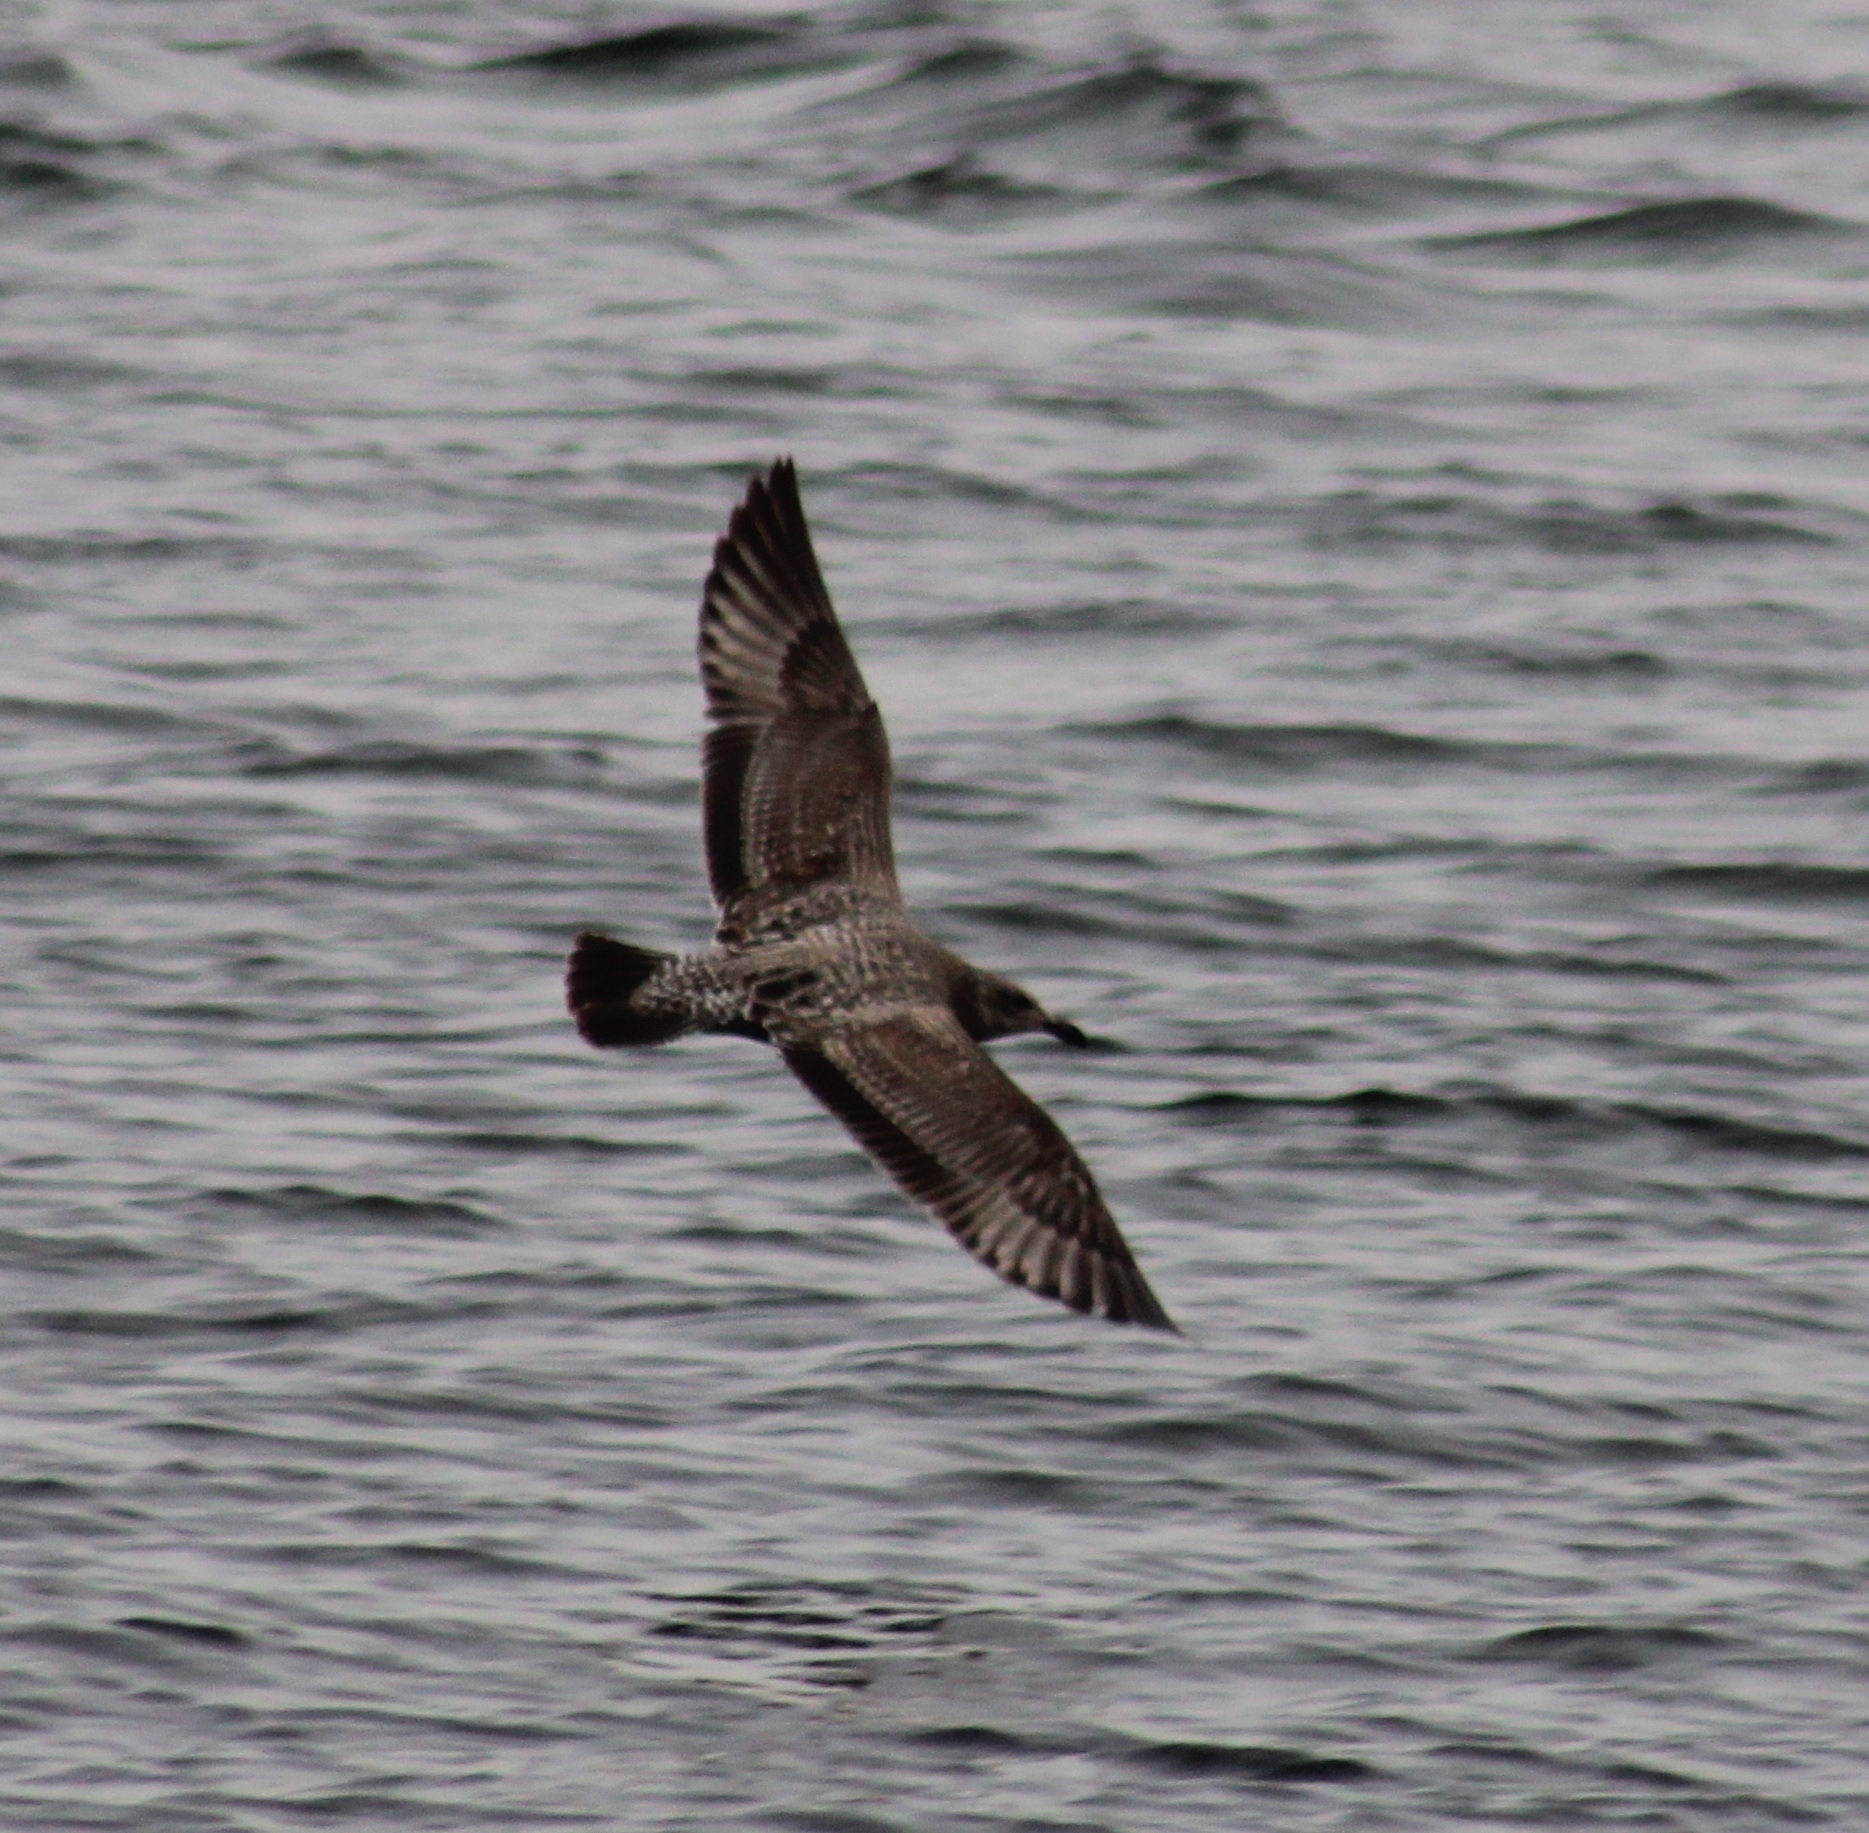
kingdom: Animalia
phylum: Chordata
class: Aves
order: Charadriiformes
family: Laridae
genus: Larus
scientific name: Larus argentatus
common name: Herring gull
